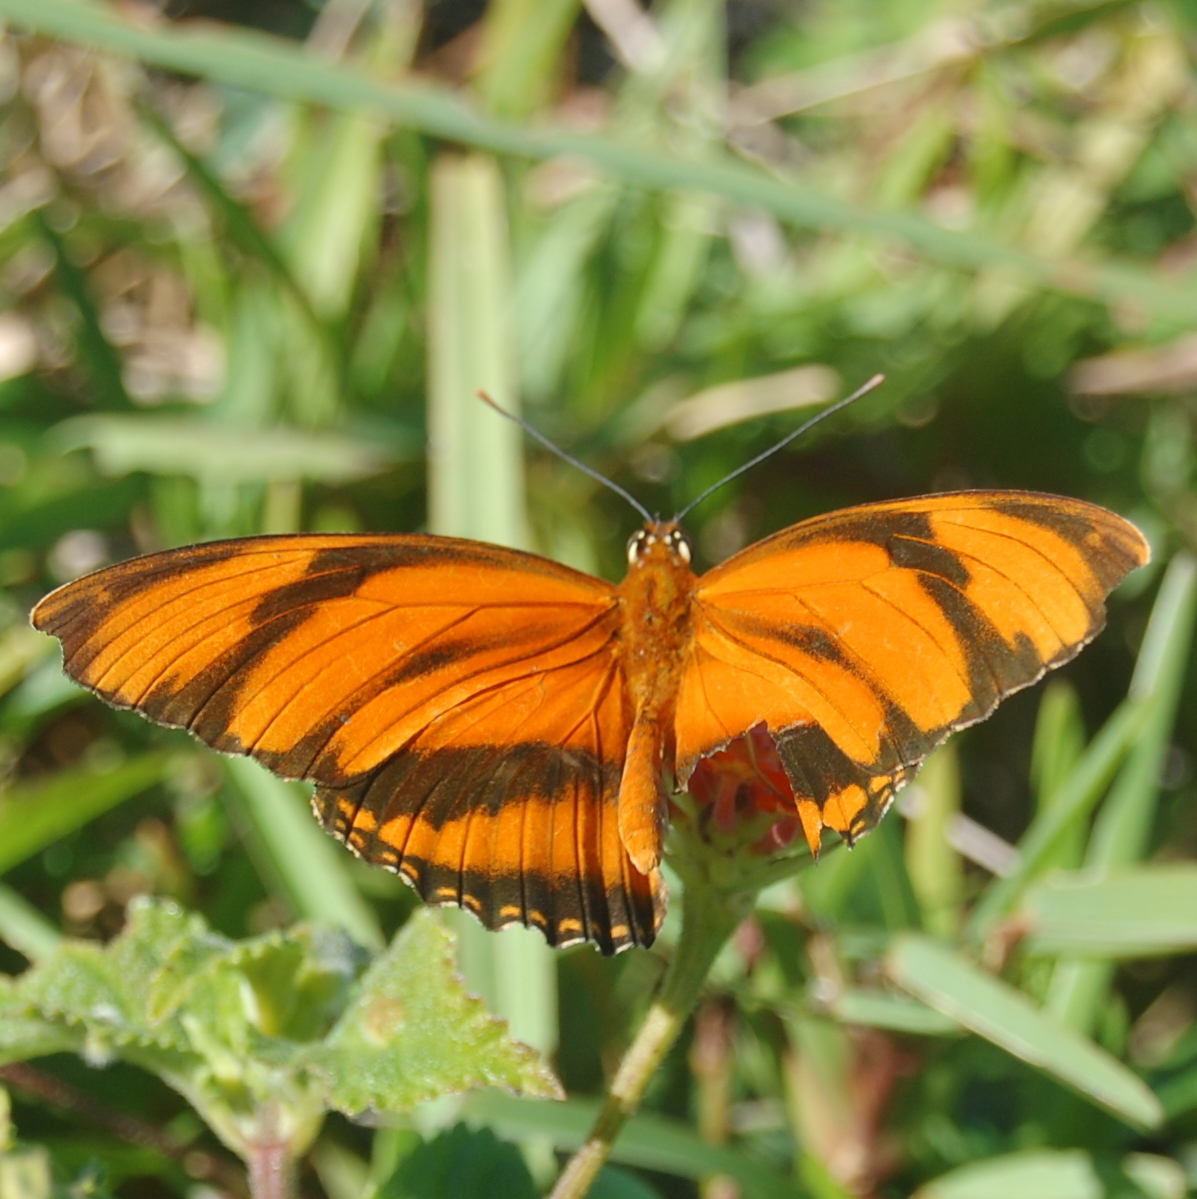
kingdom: Animalia
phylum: Arthropoda
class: Insecta
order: Lepidoptera
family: Nymphalidae
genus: Dryadula
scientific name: Dryadula phaetusa
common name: Banded orange heliconian
